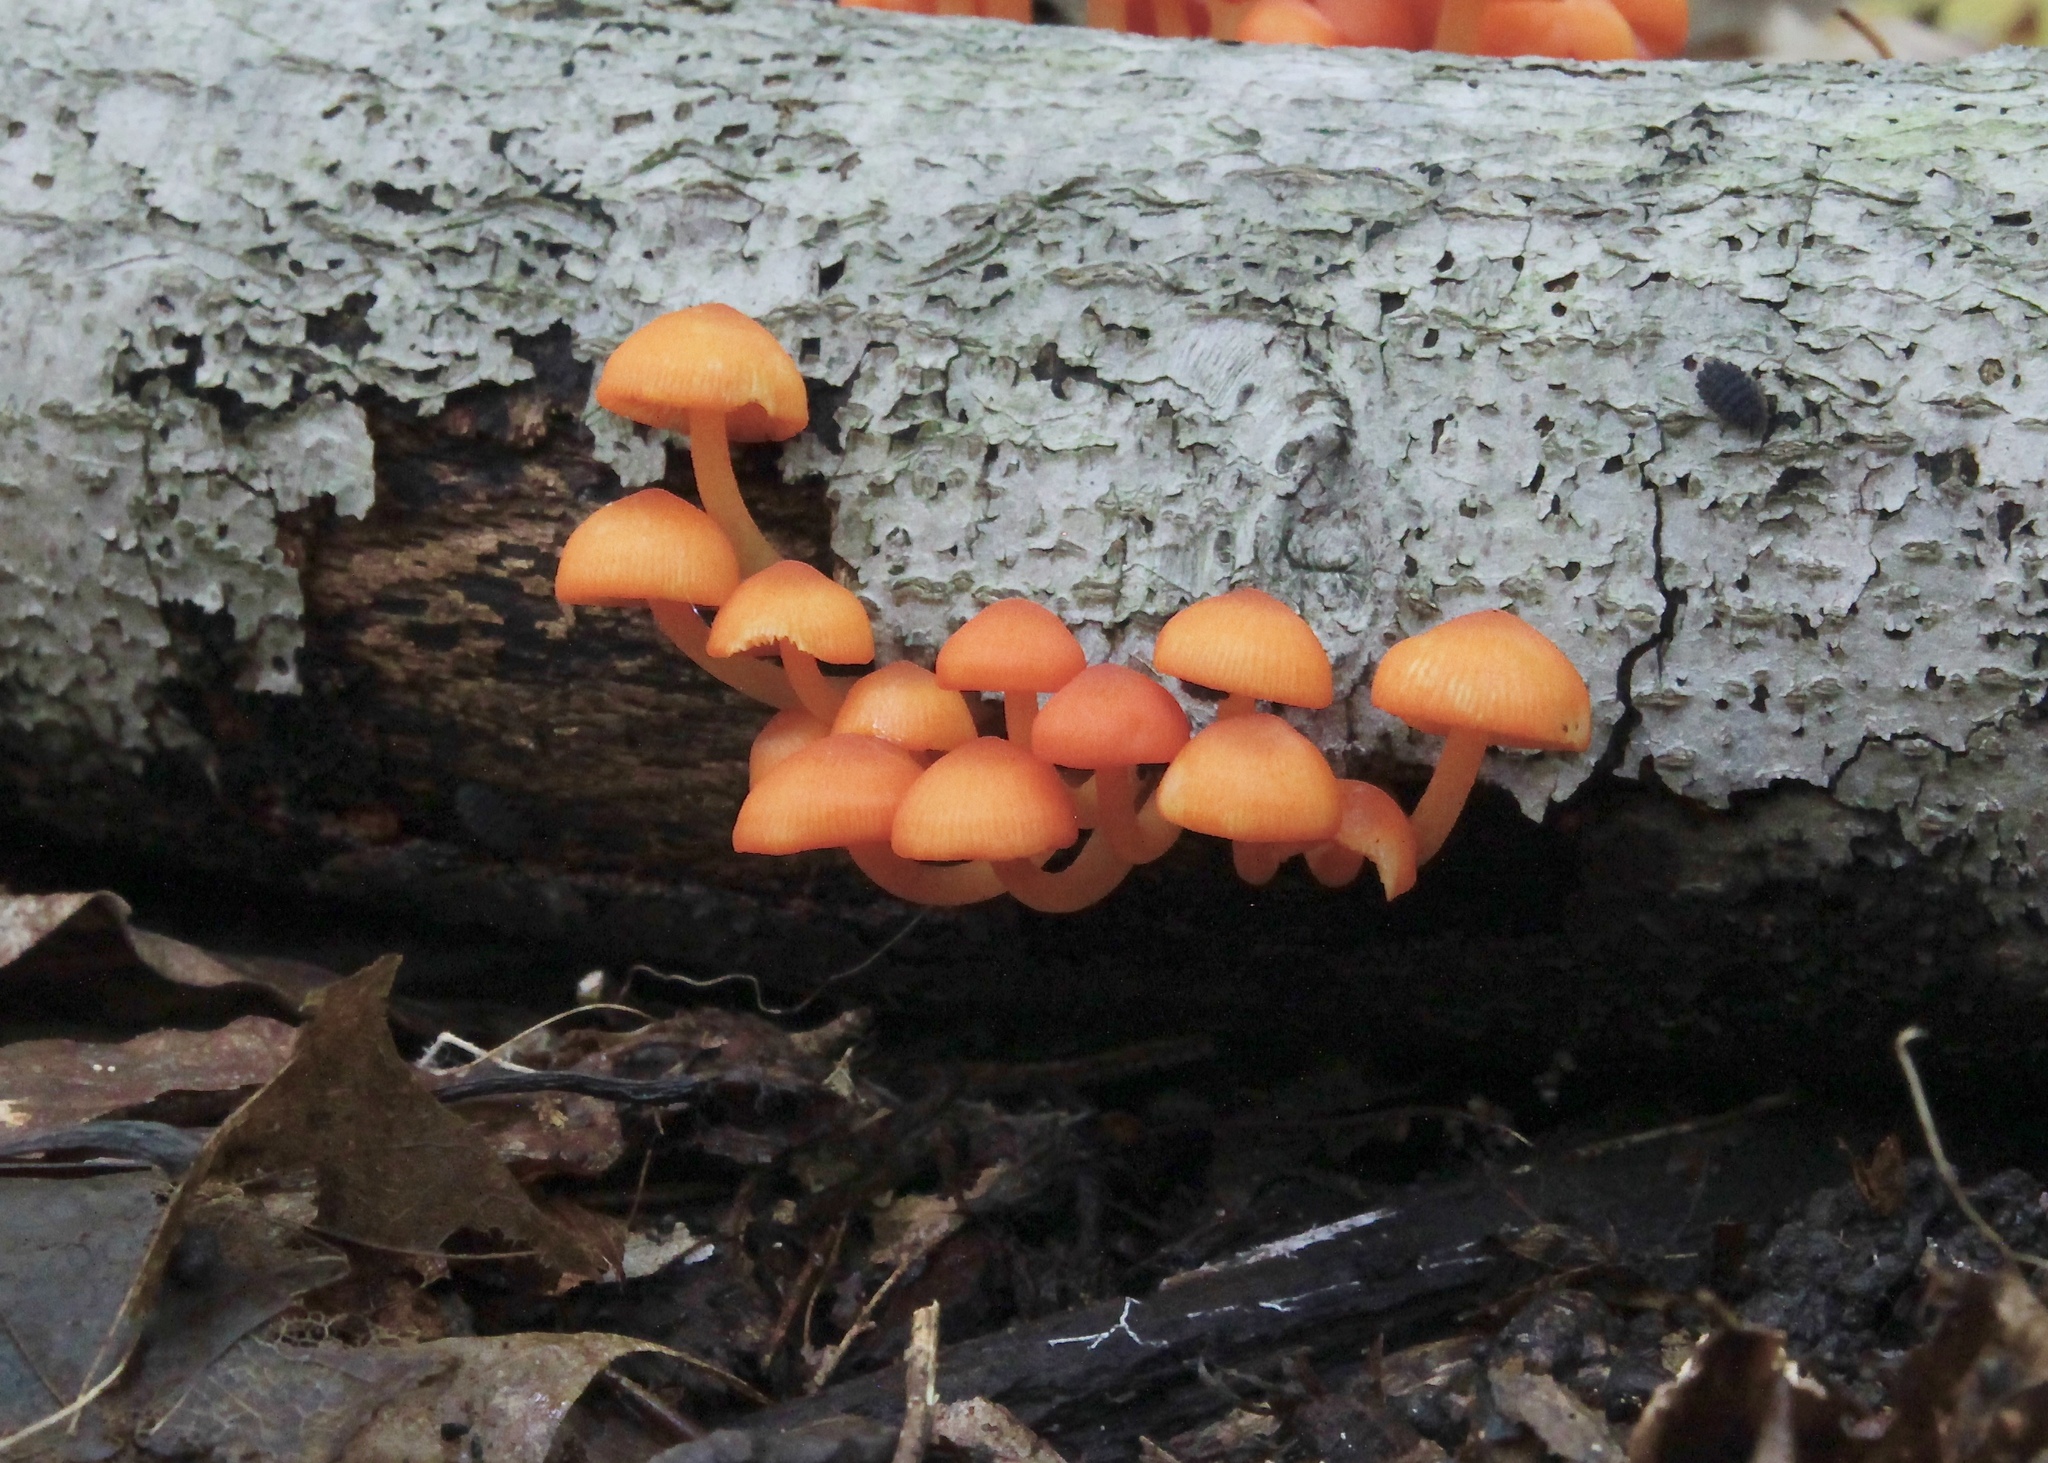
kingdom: Fungi
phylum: Basidiomycota
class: Agaricomycetes
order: Agaricales
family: Mycenaceae
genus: Mycena
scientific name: Mycena leaiana
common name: Orange mycena
